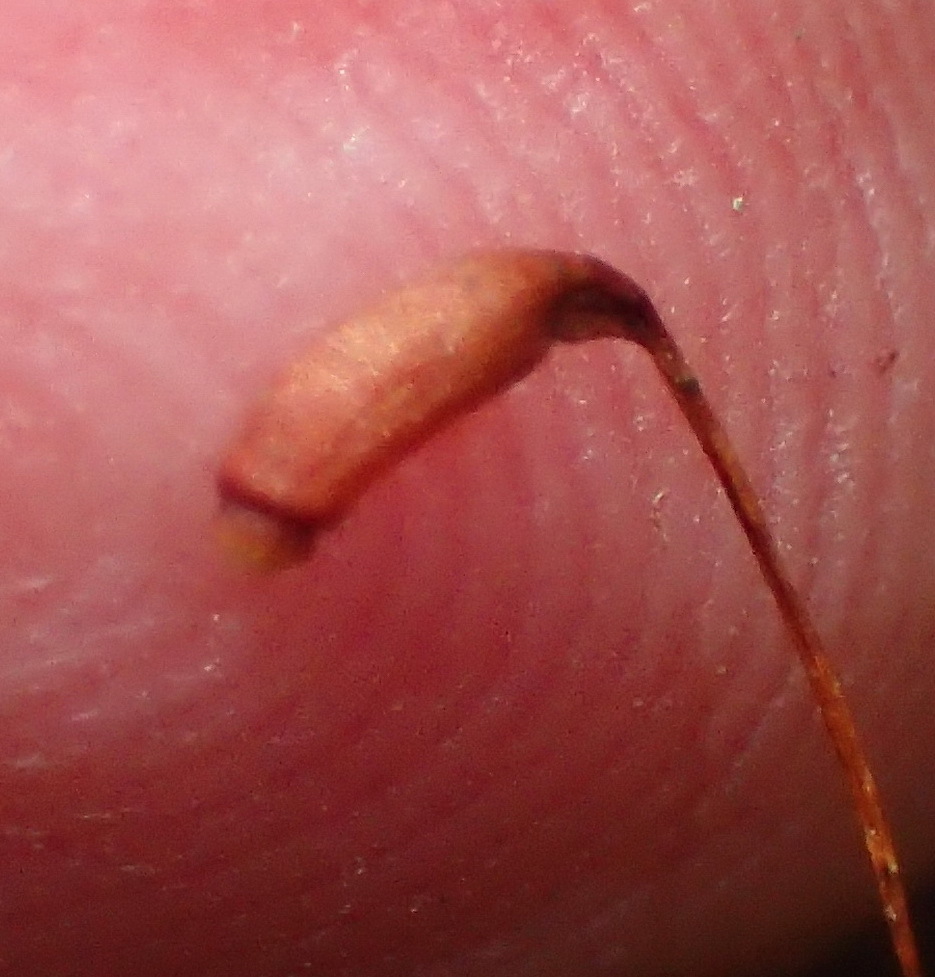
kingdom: Plantae
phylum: Bryophyta
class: Bryopsida
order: Rhizogoniales
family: Calomniaceae
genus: Pyrrhobryum
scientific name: Pyrrhobryum spiniforme
